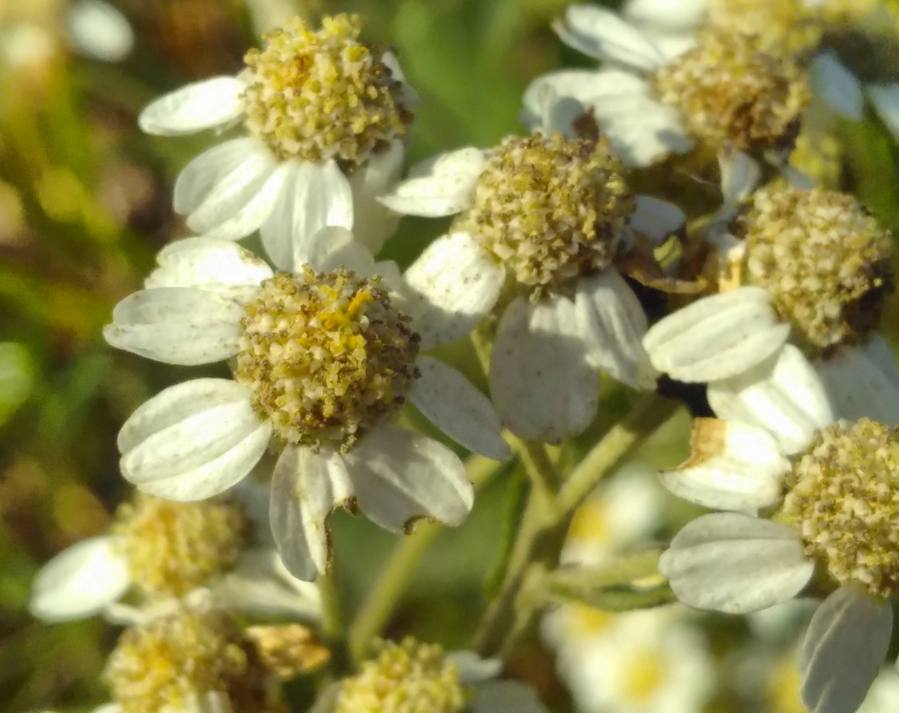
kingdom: Plantae
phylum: Tracheophyta
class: Magnoliopsida
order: Asterales
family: Asteraceae
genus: Achillea
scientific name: Achillea ptarmica
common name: Sneezeweed
